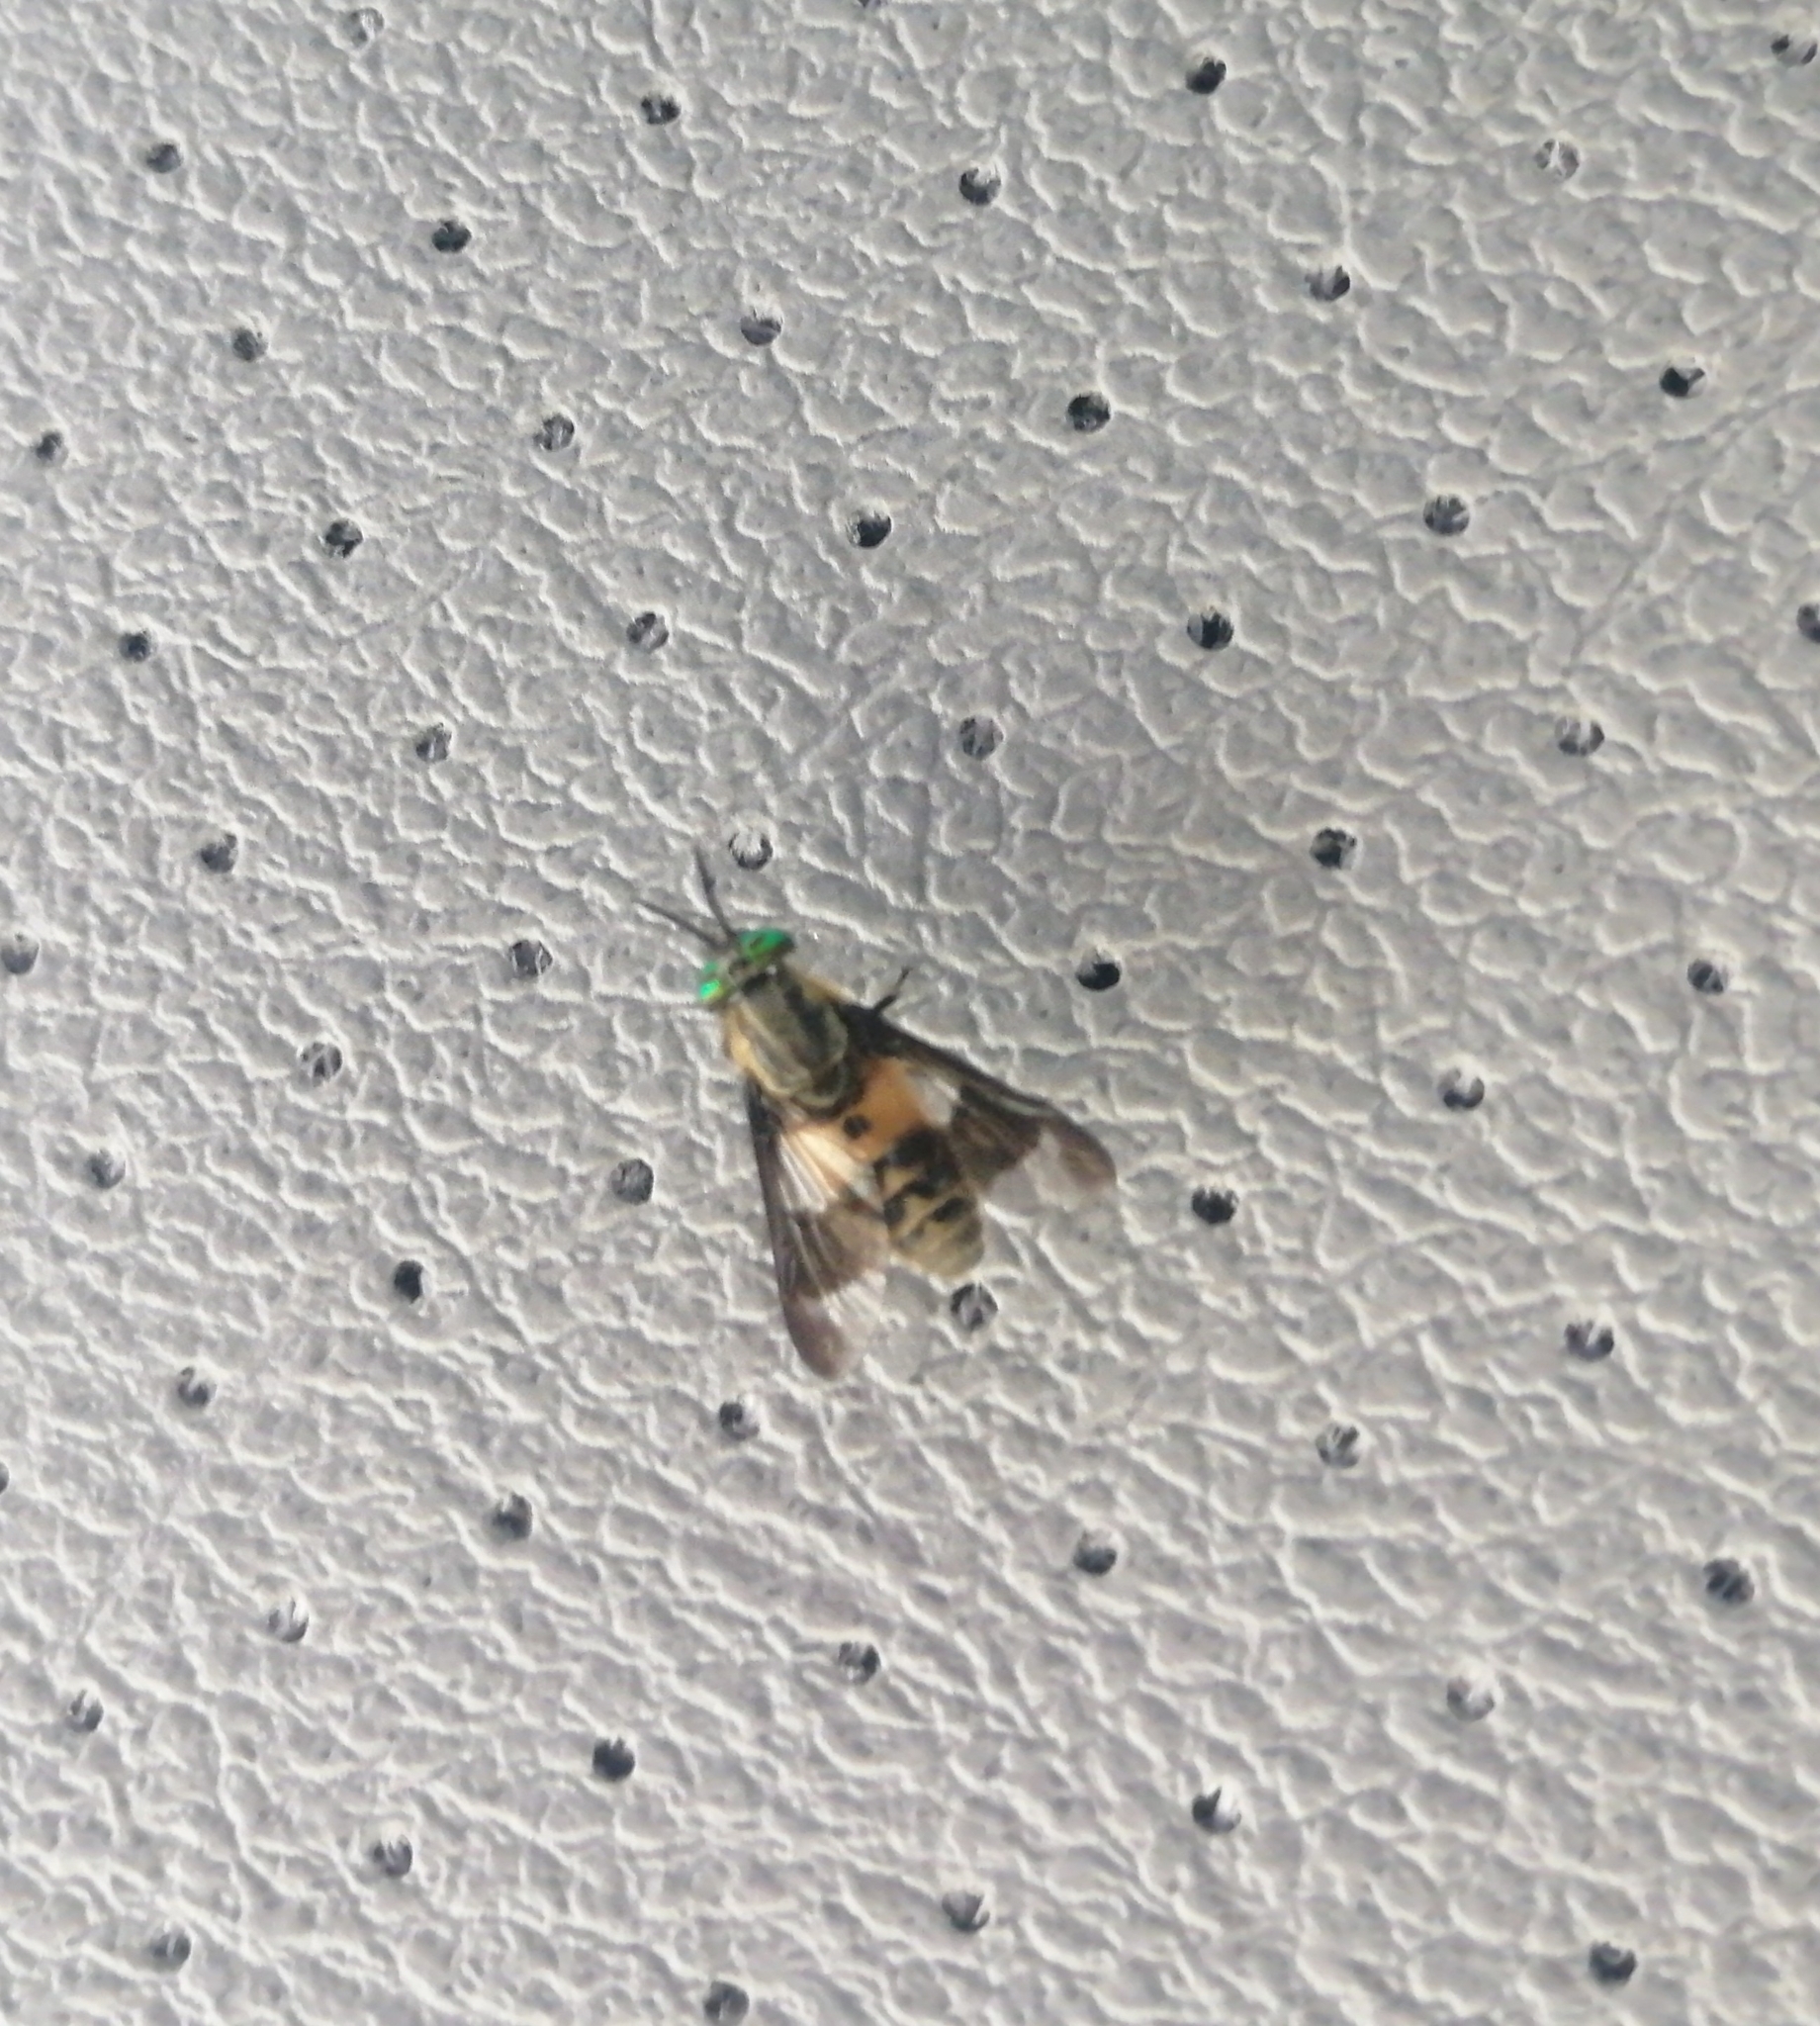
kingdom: Animalia
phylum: Arthropoda
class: Insecta
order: Diptera
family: Tabanidae
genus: Chrysops
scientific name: Chrysops viduatus
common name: Square-spot deerfly
